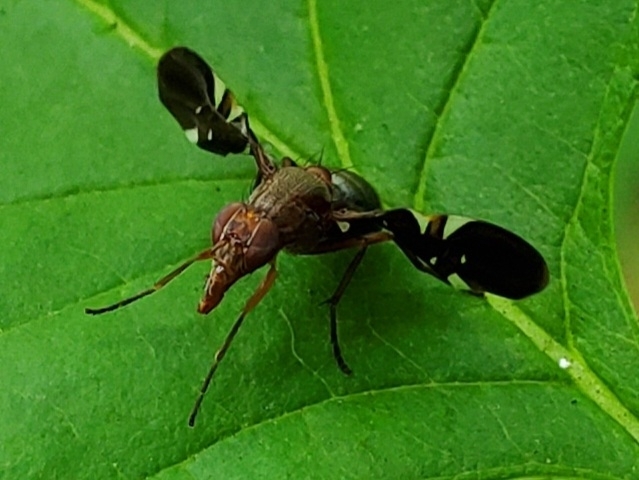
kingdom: Animalia
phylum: Arthropoda
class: Insecta
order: Diptera
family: Ulidiidae
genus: Delphinia
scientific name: Delphinia picta
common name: Common picture-winged fly
